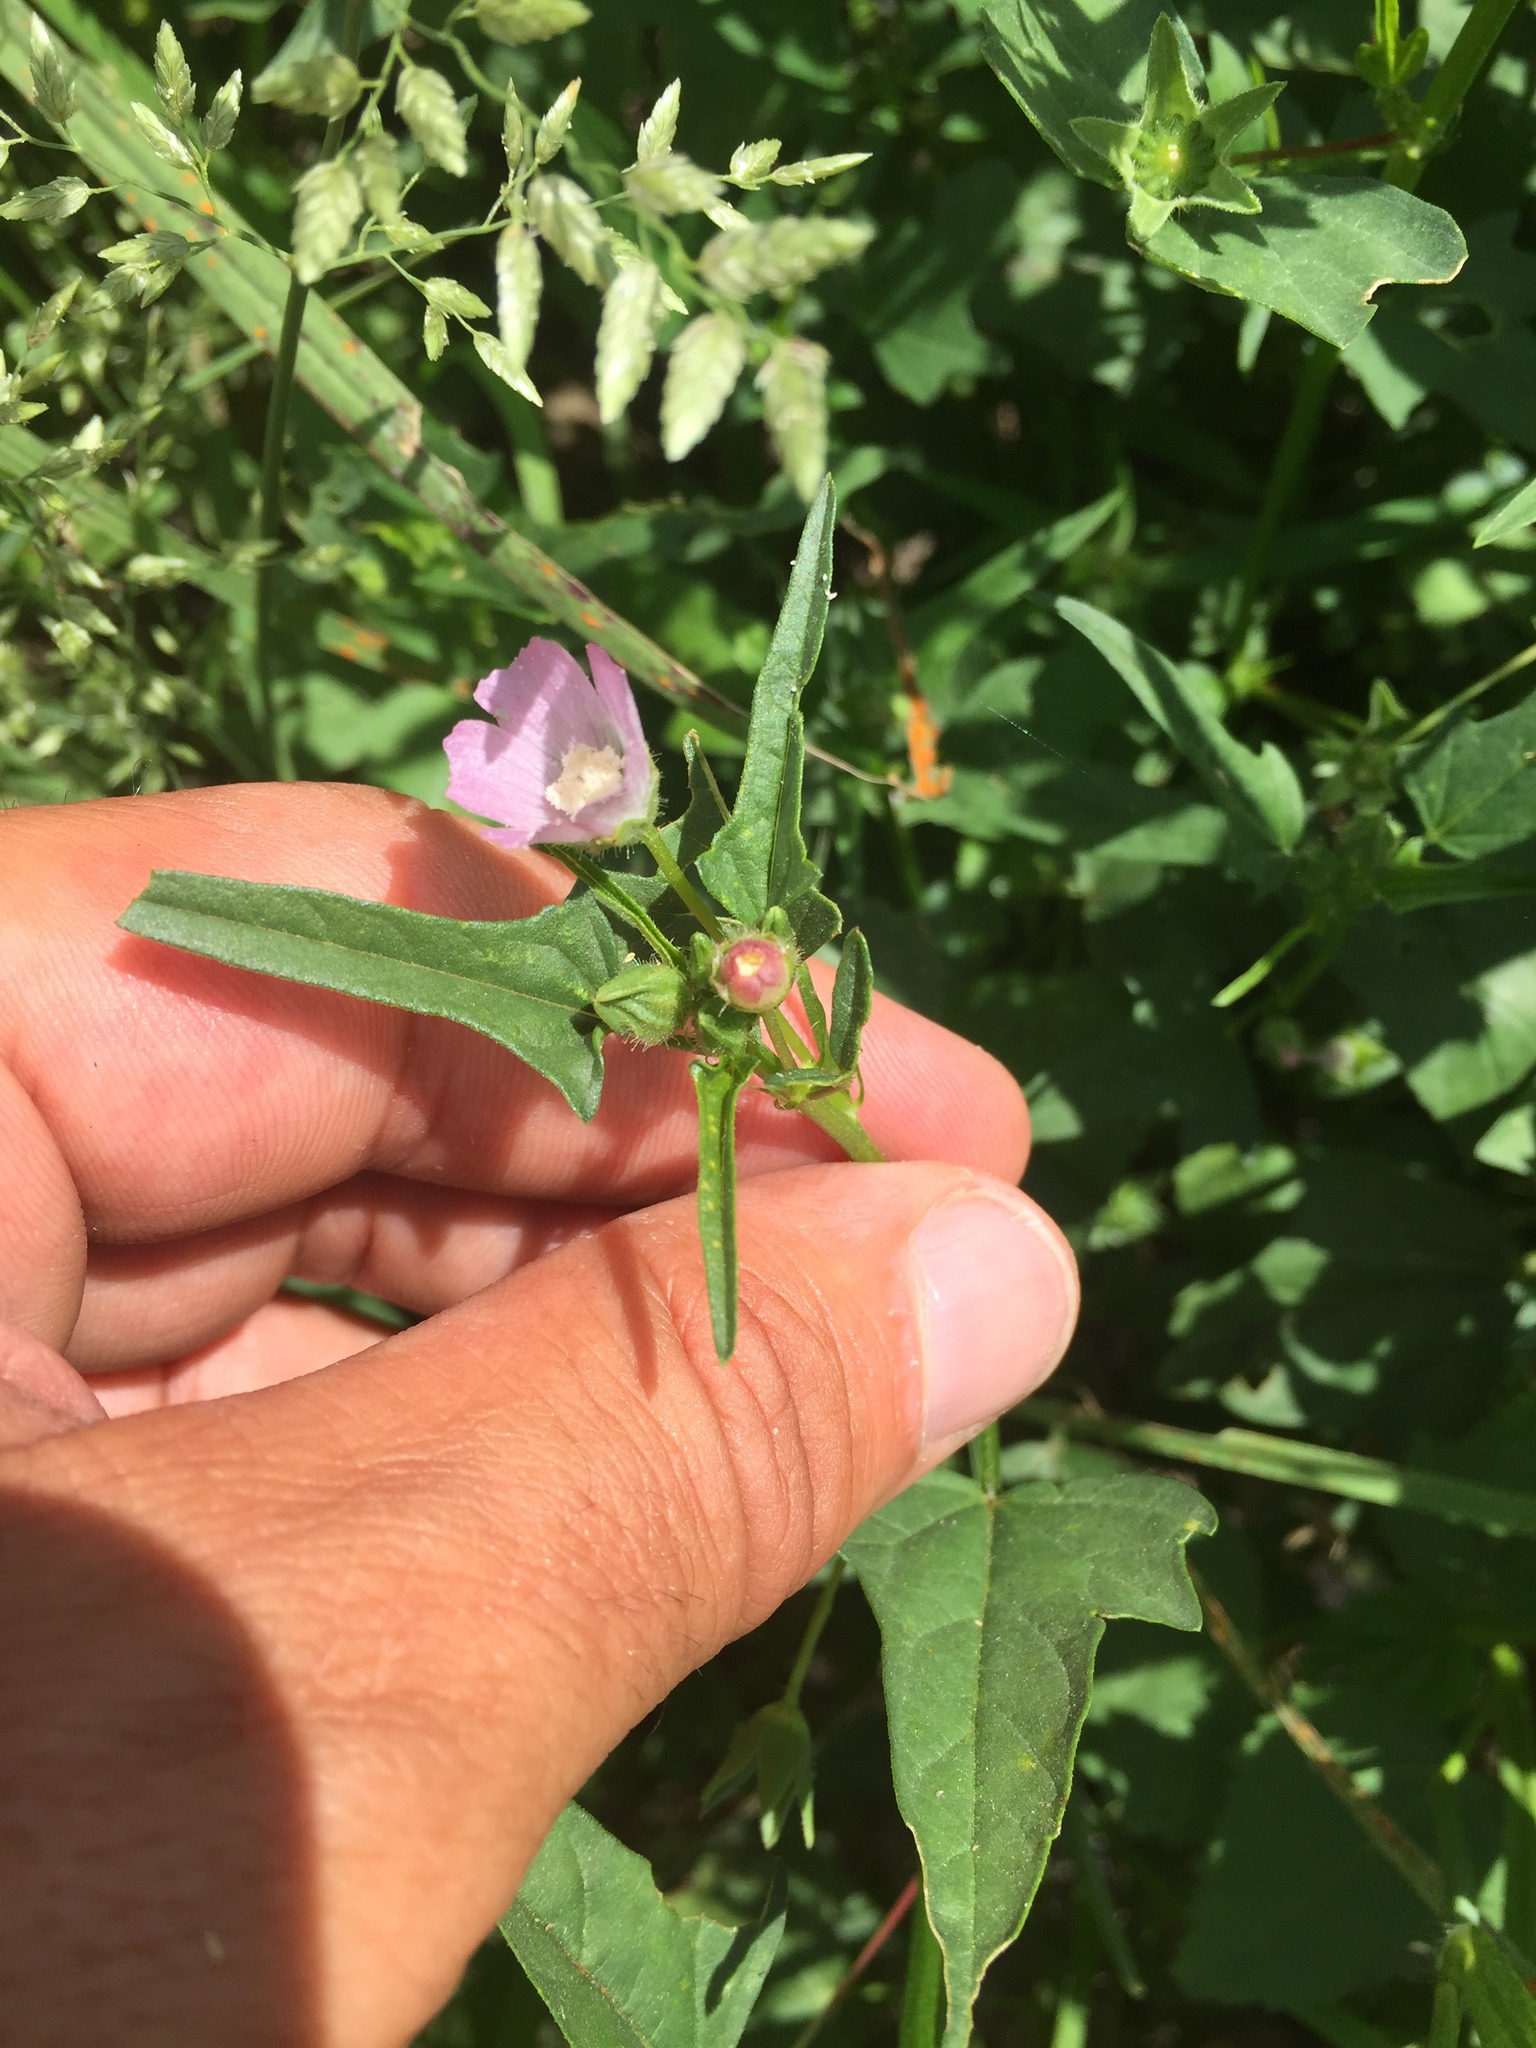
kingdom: Plantae
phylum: Tracheophyta
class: Magnoliopsida
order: Malvales
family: Malvaceae
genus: Anoda
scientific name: Anoda cristata
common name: Spurred anoda
